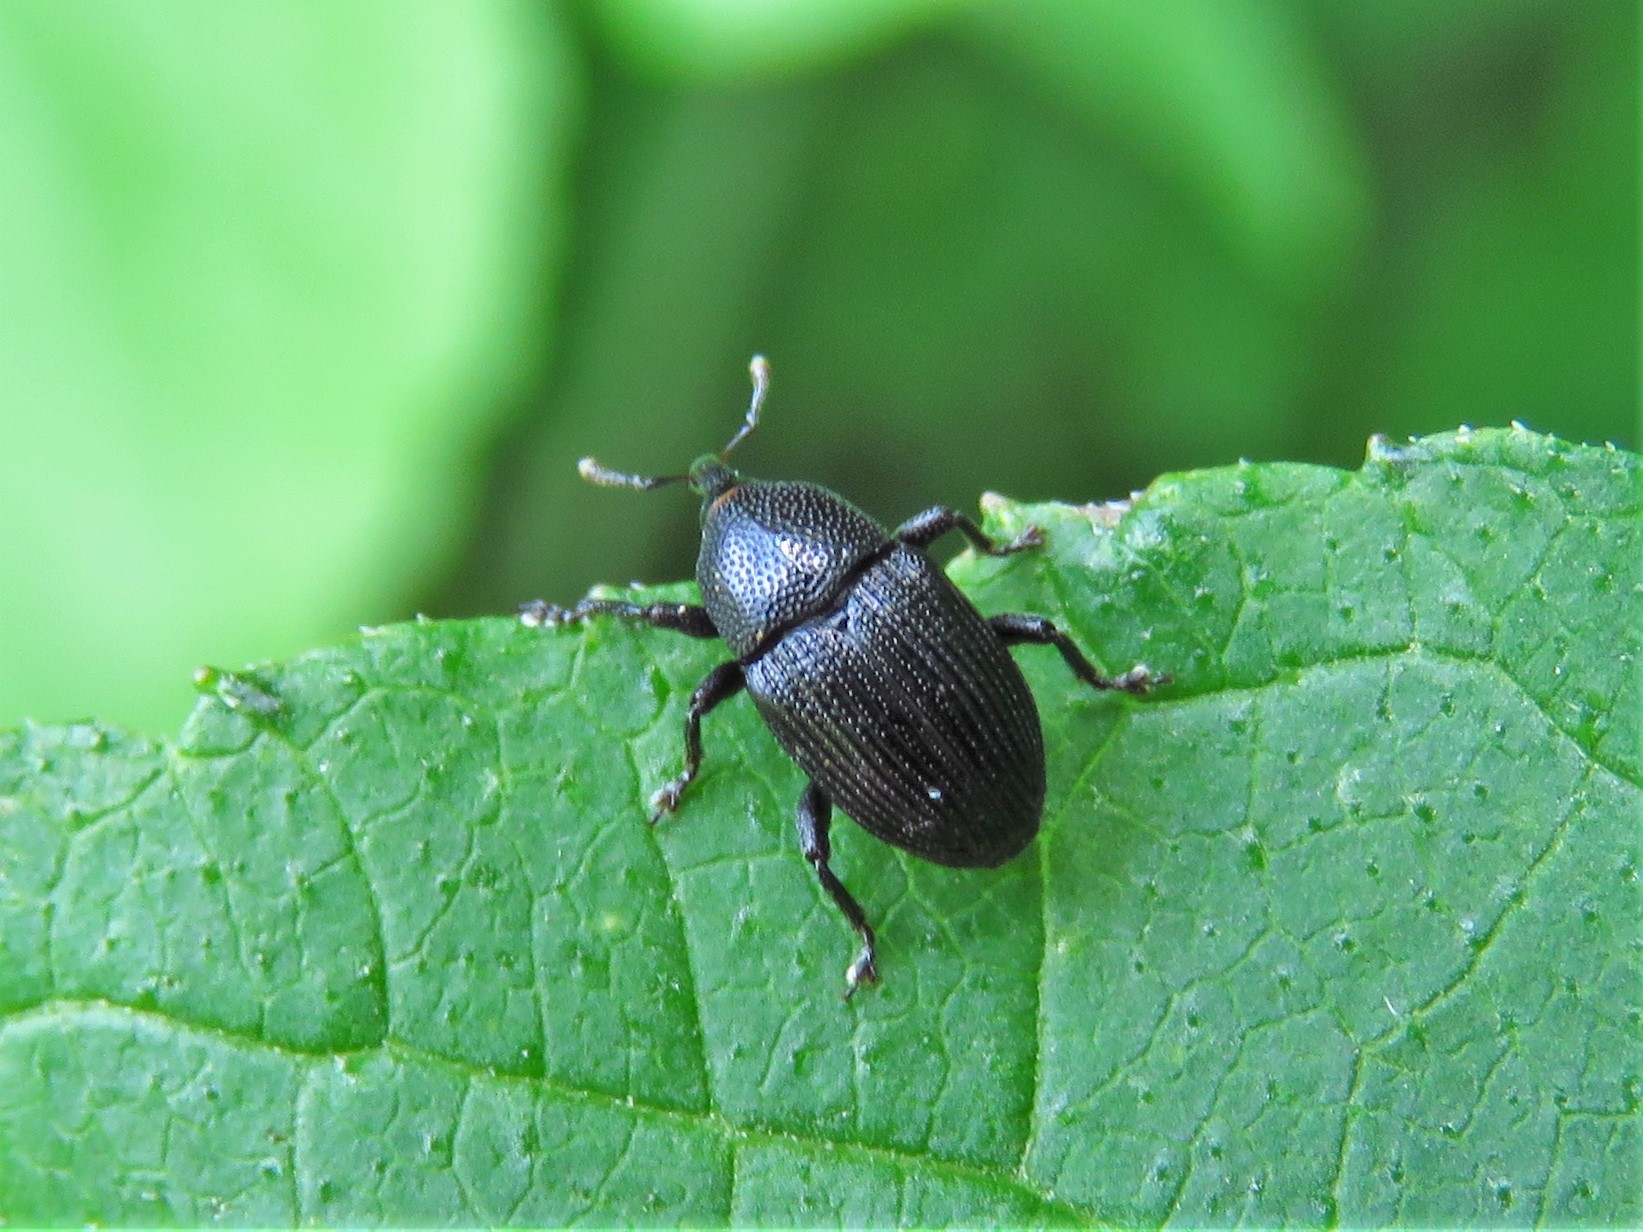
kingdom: Animalia
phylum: Arthropoda
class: Insecta
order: Coleoptera
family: Curculionidae
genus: Trepobaris
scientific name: Trepobaris elongata
